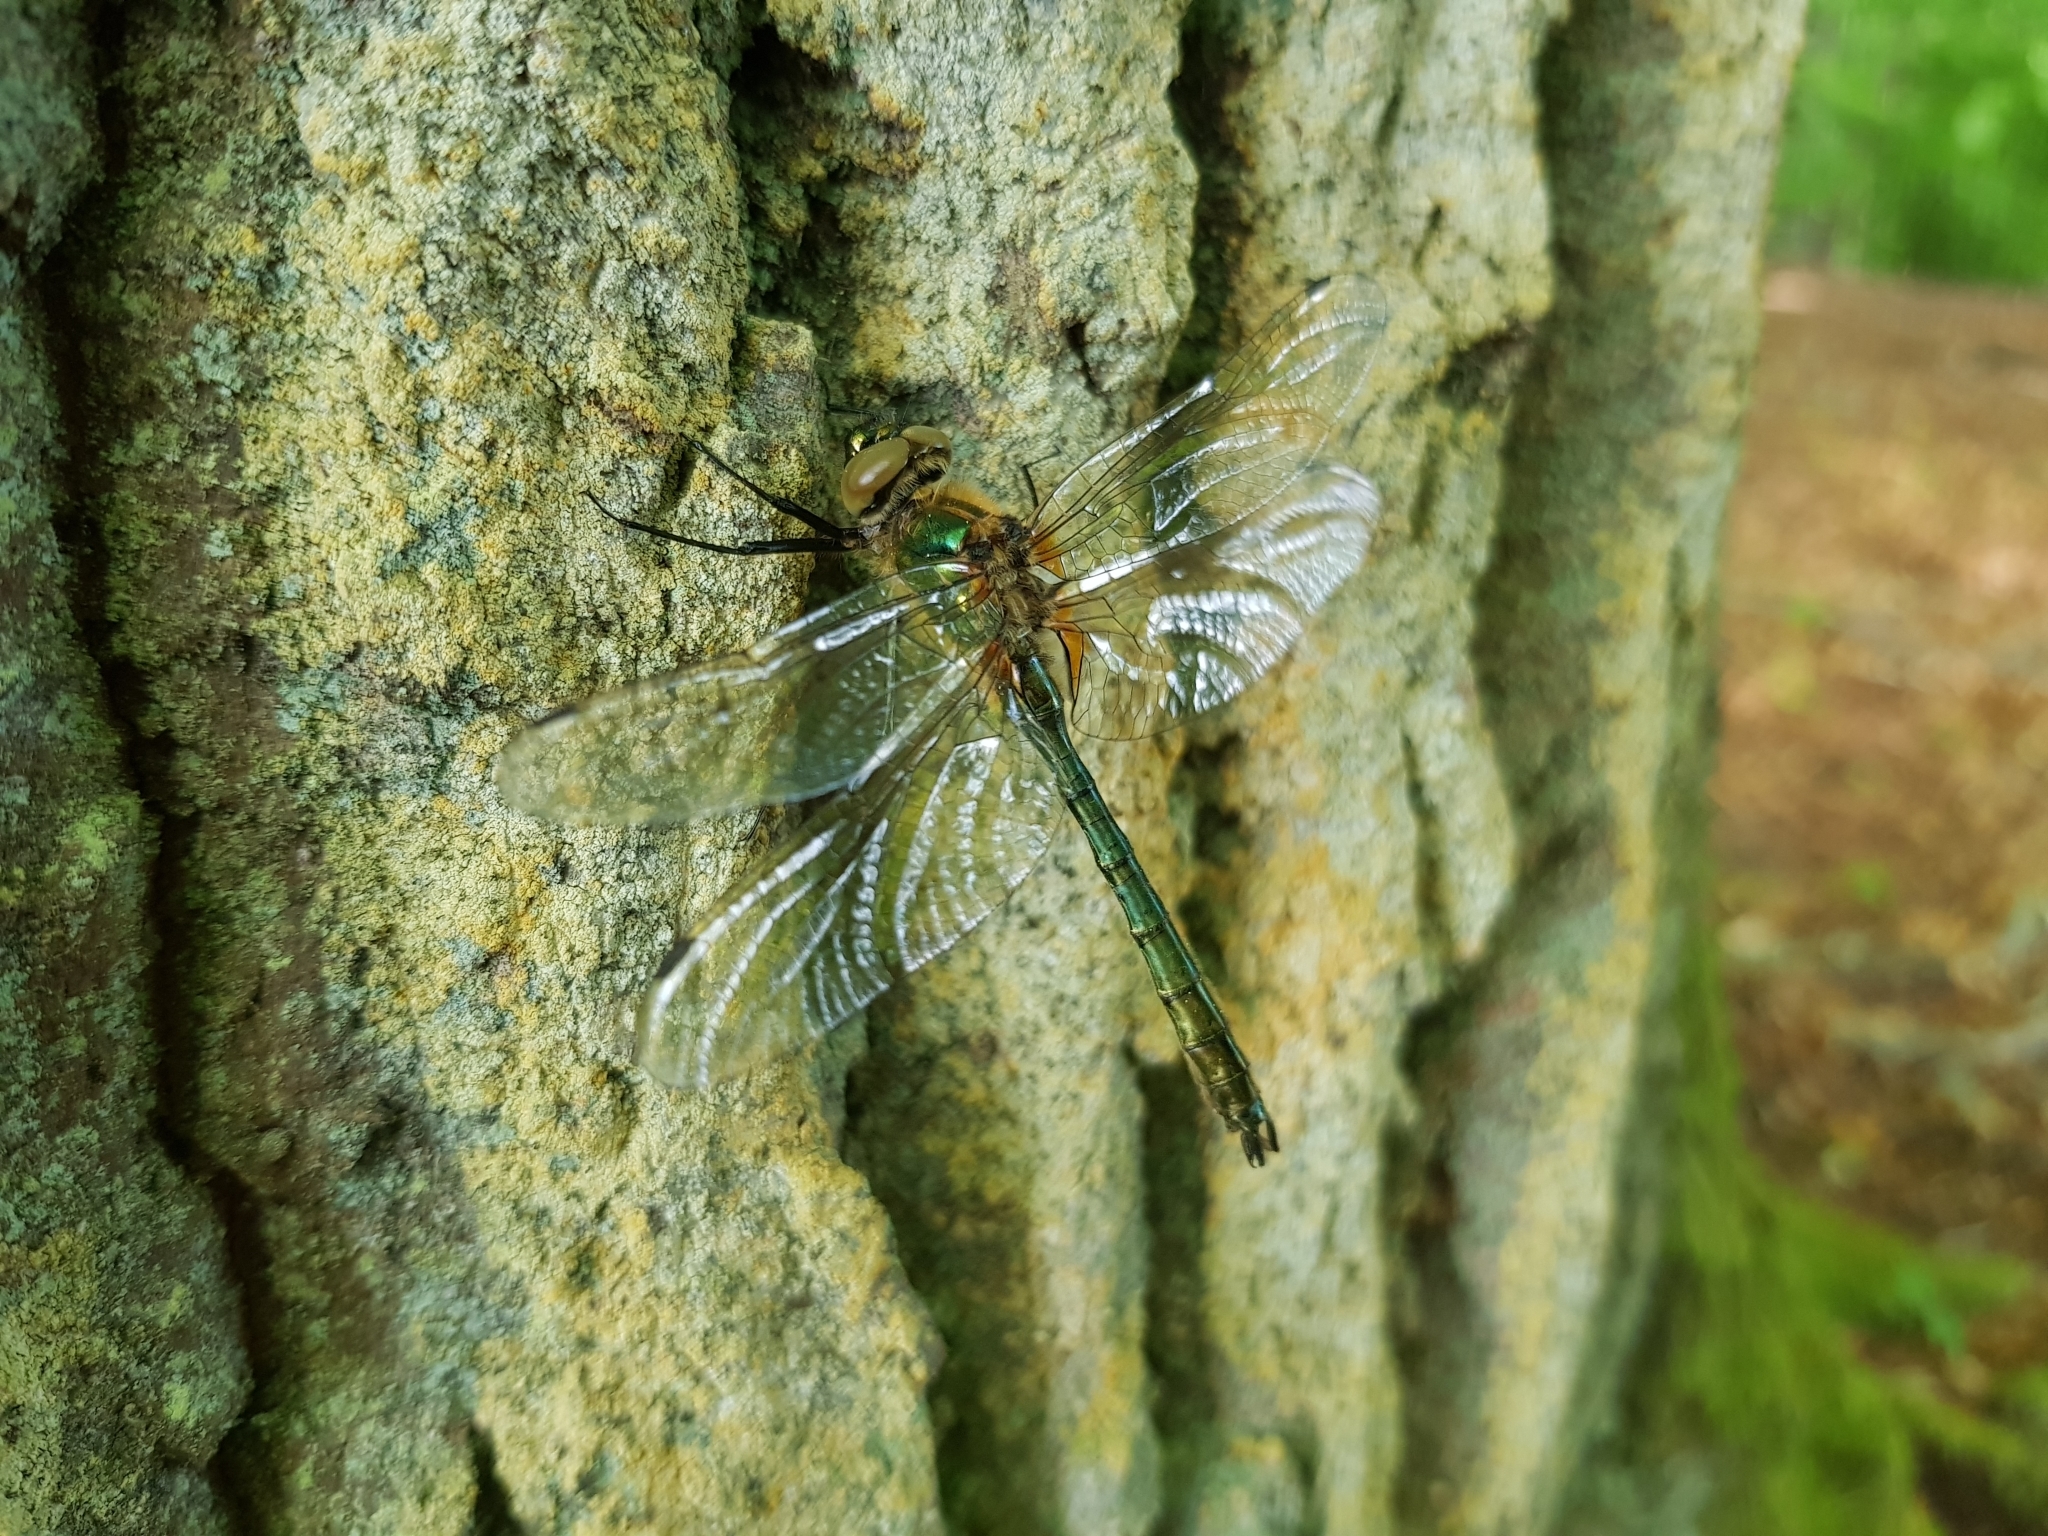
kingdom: Animalia
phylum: Arthropoda
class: Insecta
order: Odonata
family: Corduliidae
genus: Cordulia
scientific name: Cordulia aenea
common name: Downy emerald
